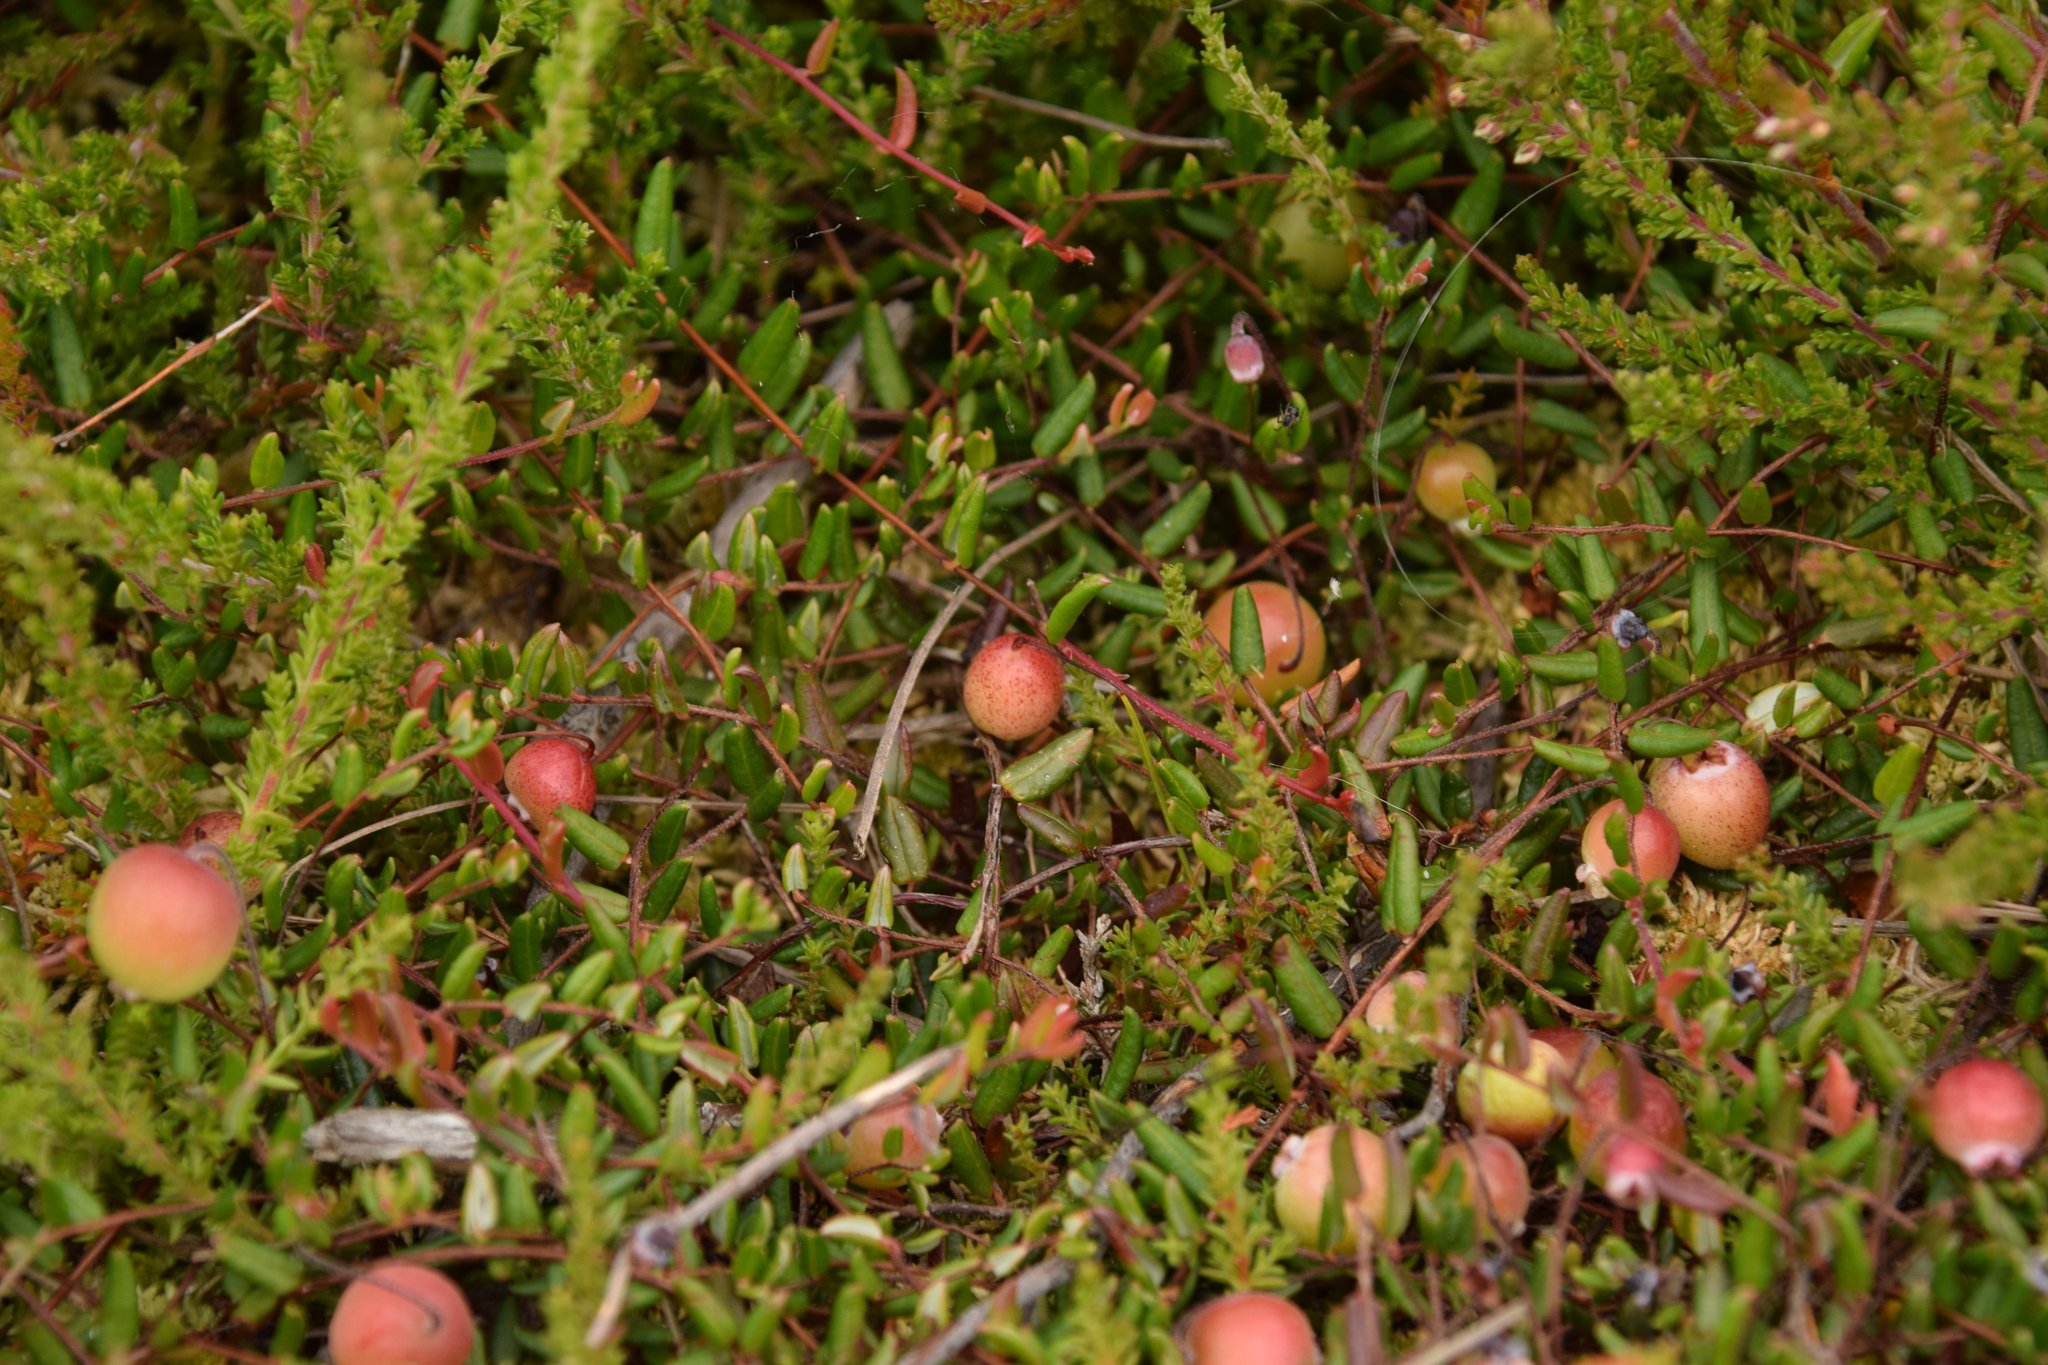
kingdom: Plantae
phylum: Tracheophyta
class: Magnoliopsida
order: Ericales
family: Ericaceae
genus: Vaccinium
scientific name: Vaccinium oxycoccos
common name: Cranberry
